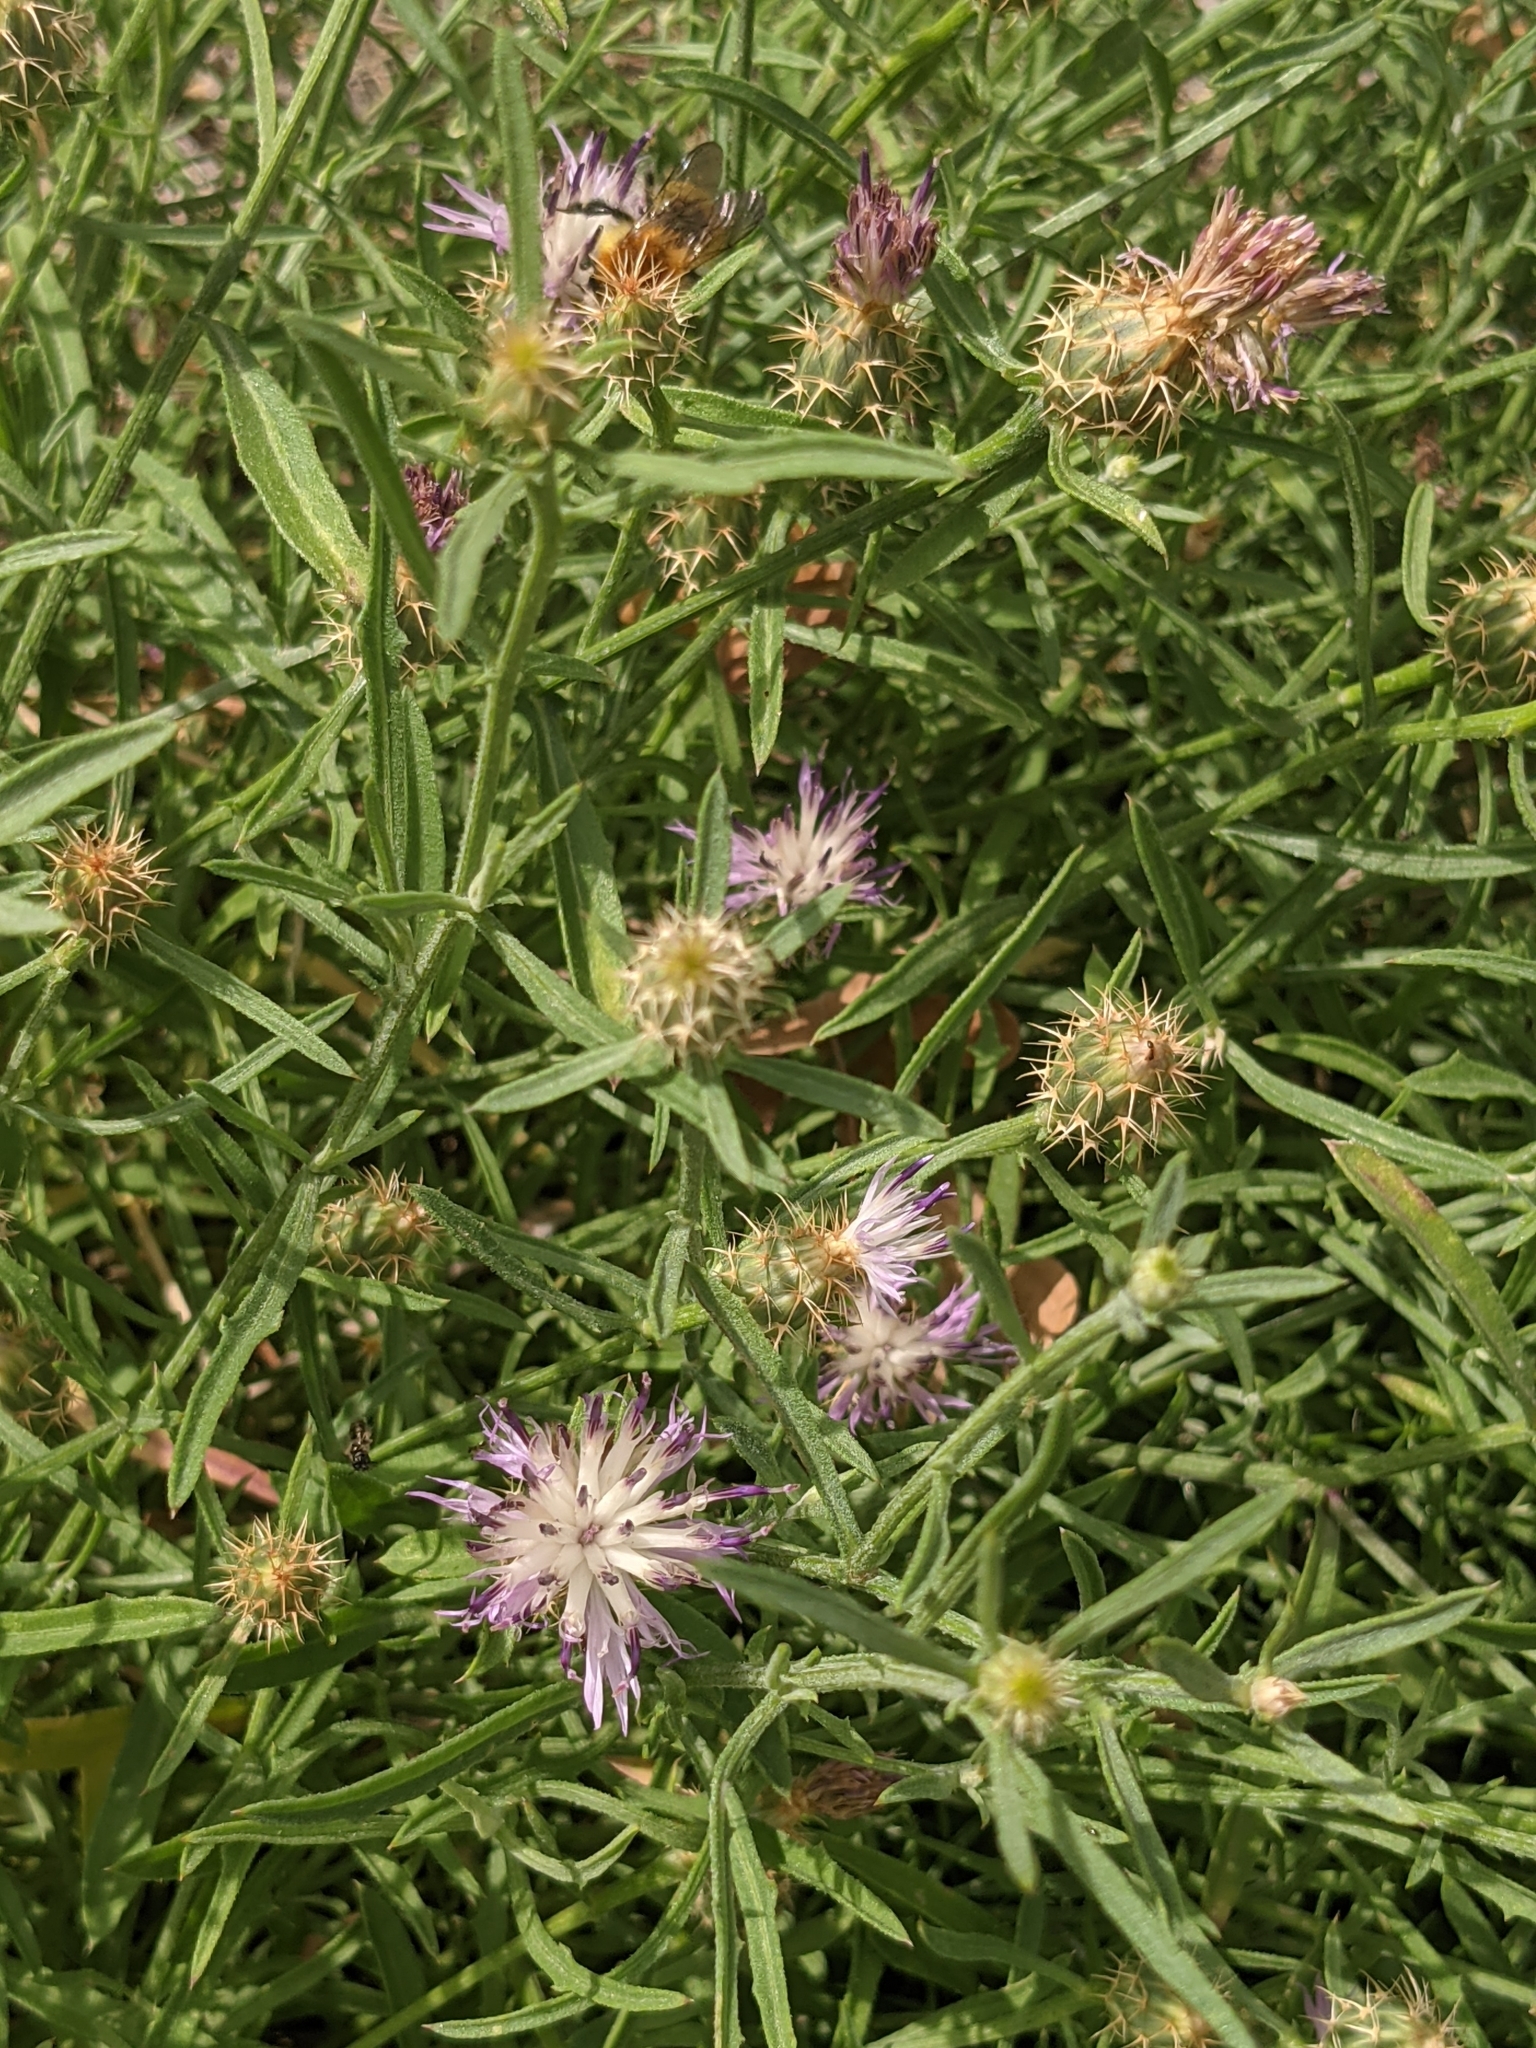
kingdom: Plantae
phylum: Tracheophyta
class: Magnoliopsida
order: Asterales
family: Asteraceae
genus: Centaurea
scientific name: Centaurea aspera
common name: Rough star-thistle
